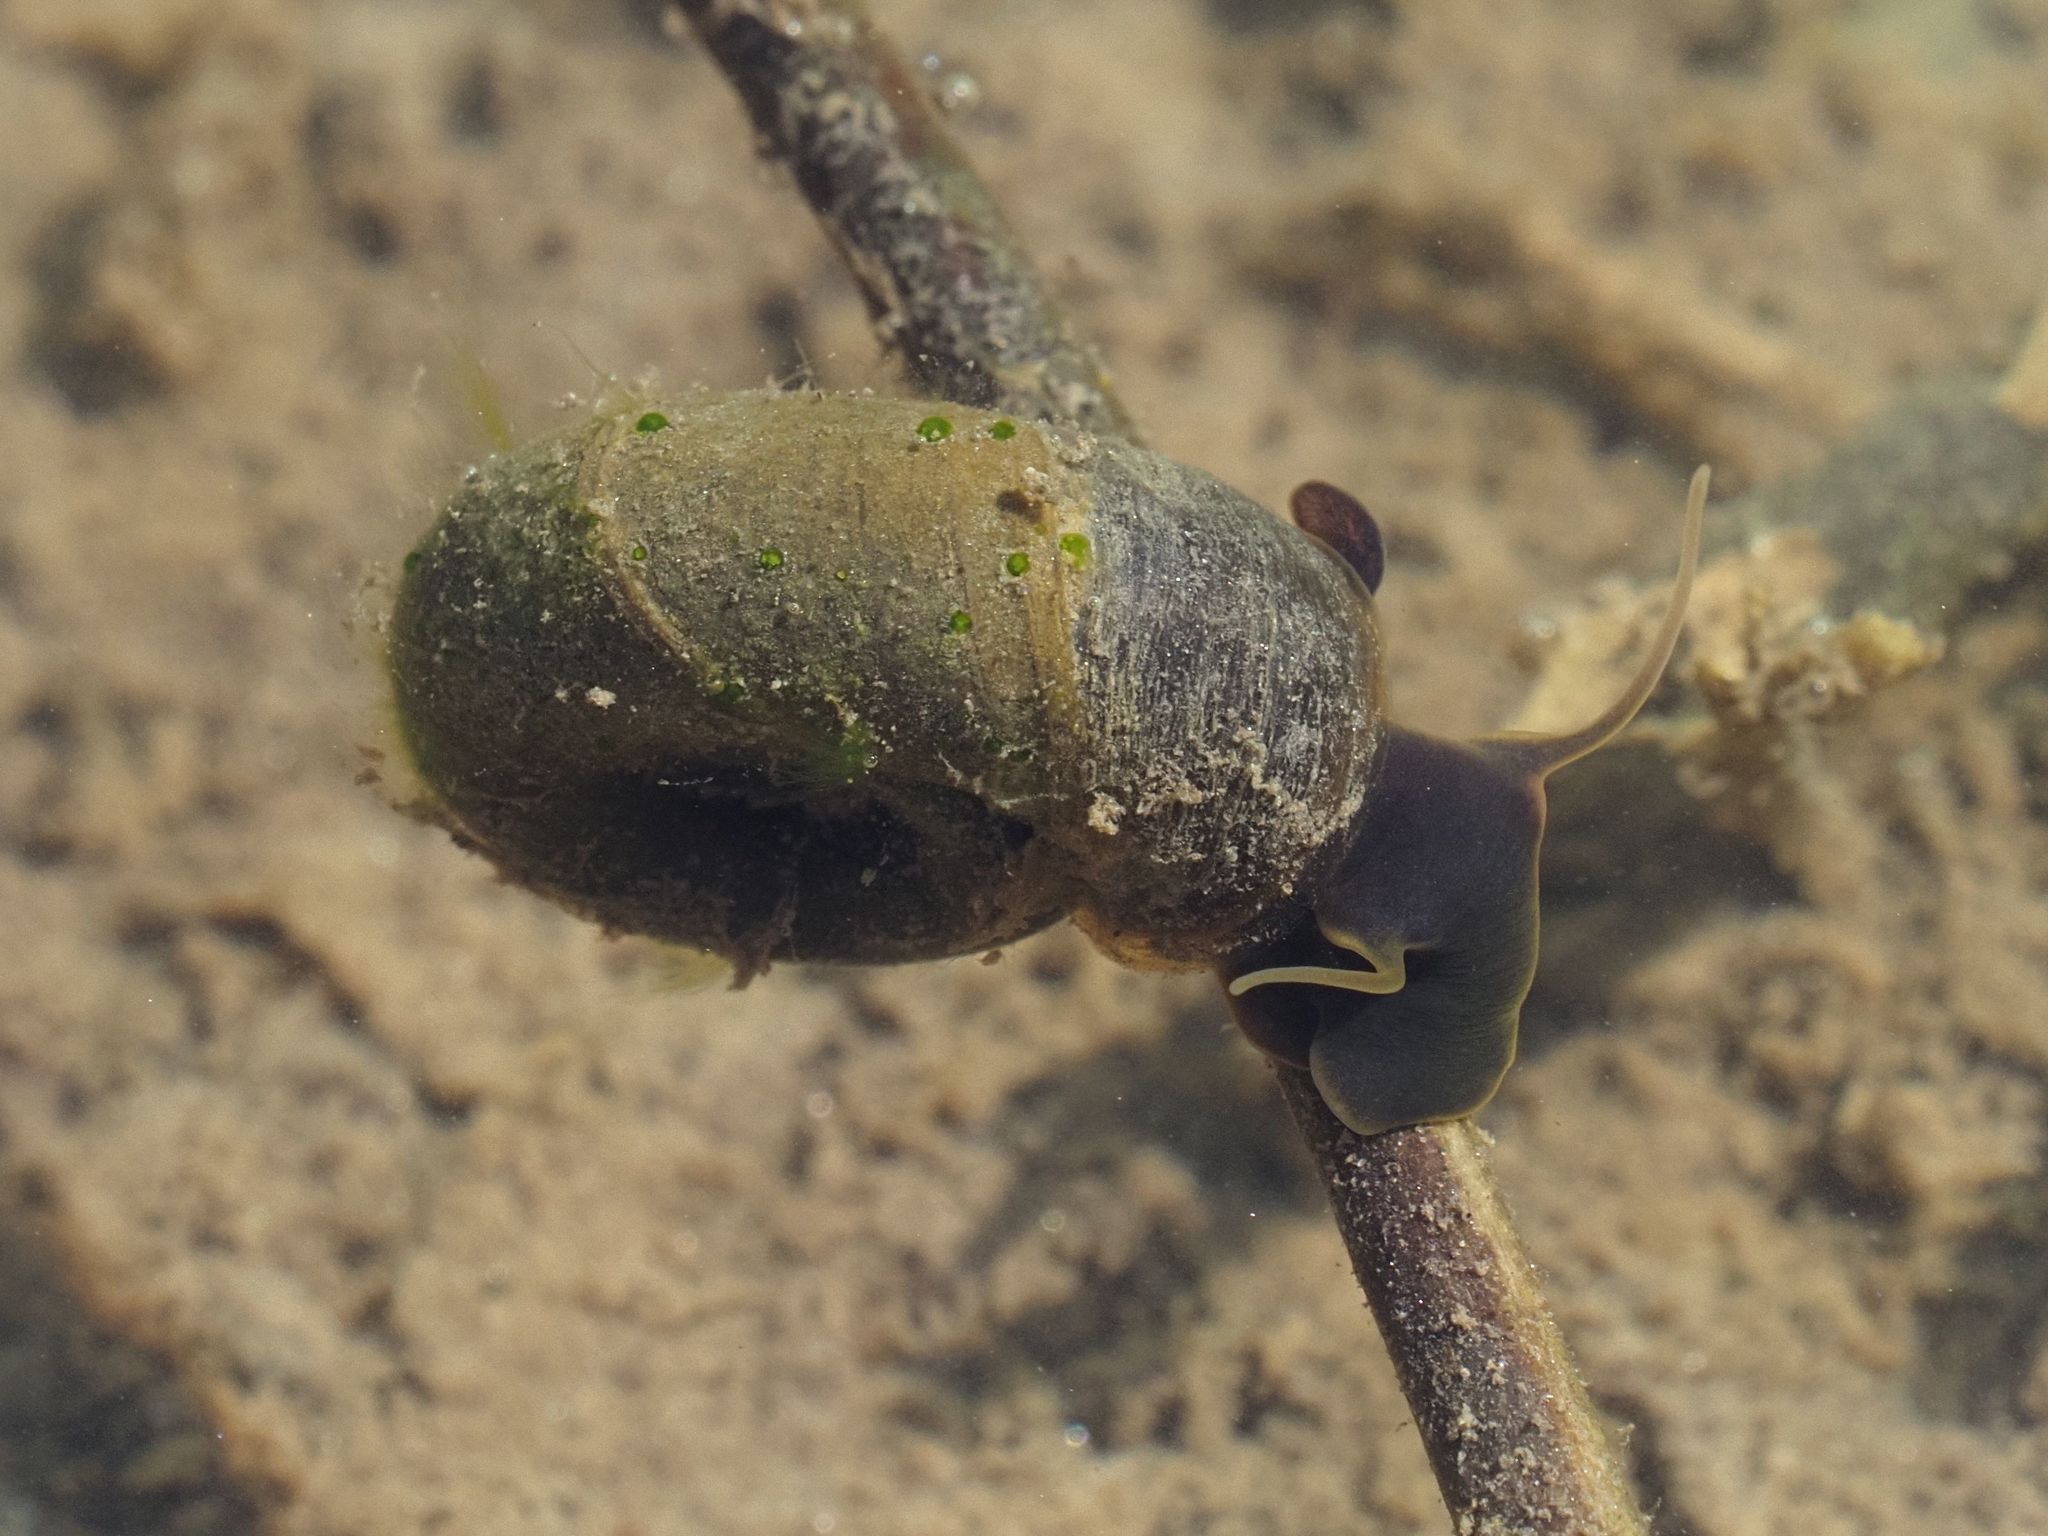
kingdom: Animalia
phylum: Mollusca
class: Gastropoda
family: Planorbidae
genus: Planorbarius
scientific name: Planorbarius corneus
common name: Great ramshorn
